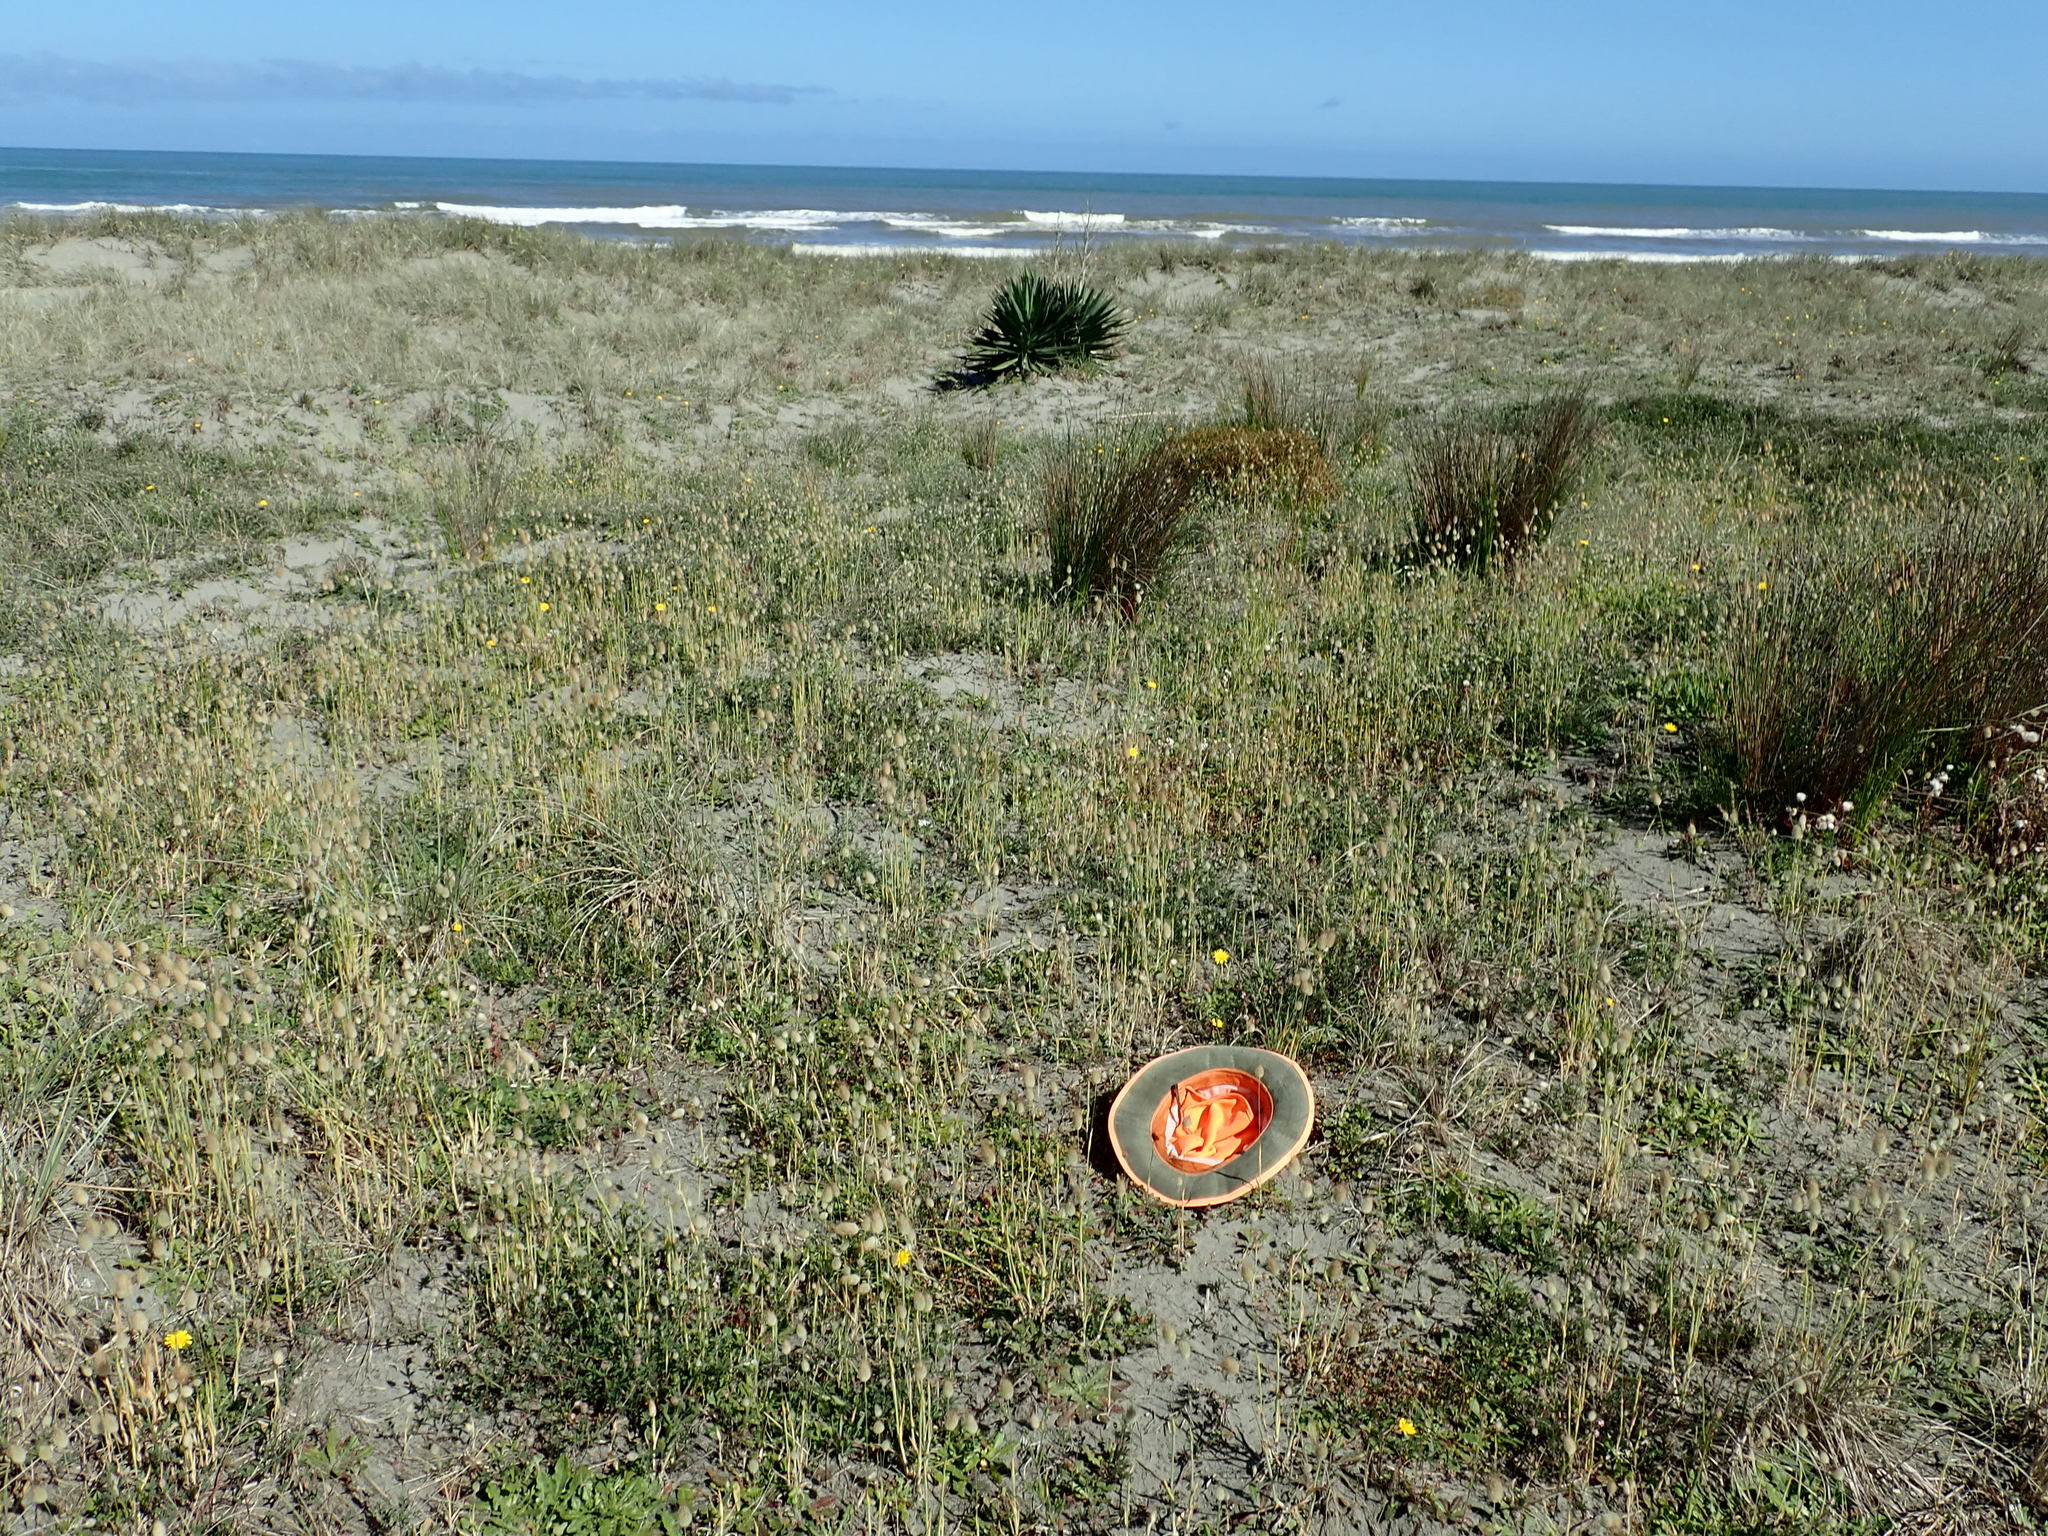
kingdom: Plantae
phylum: Tracheophyta
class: Magnoliopsida
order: Fabales
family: Fabaceae
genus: Trifolium
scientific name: Trifolium dubium
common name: Suckling clover
